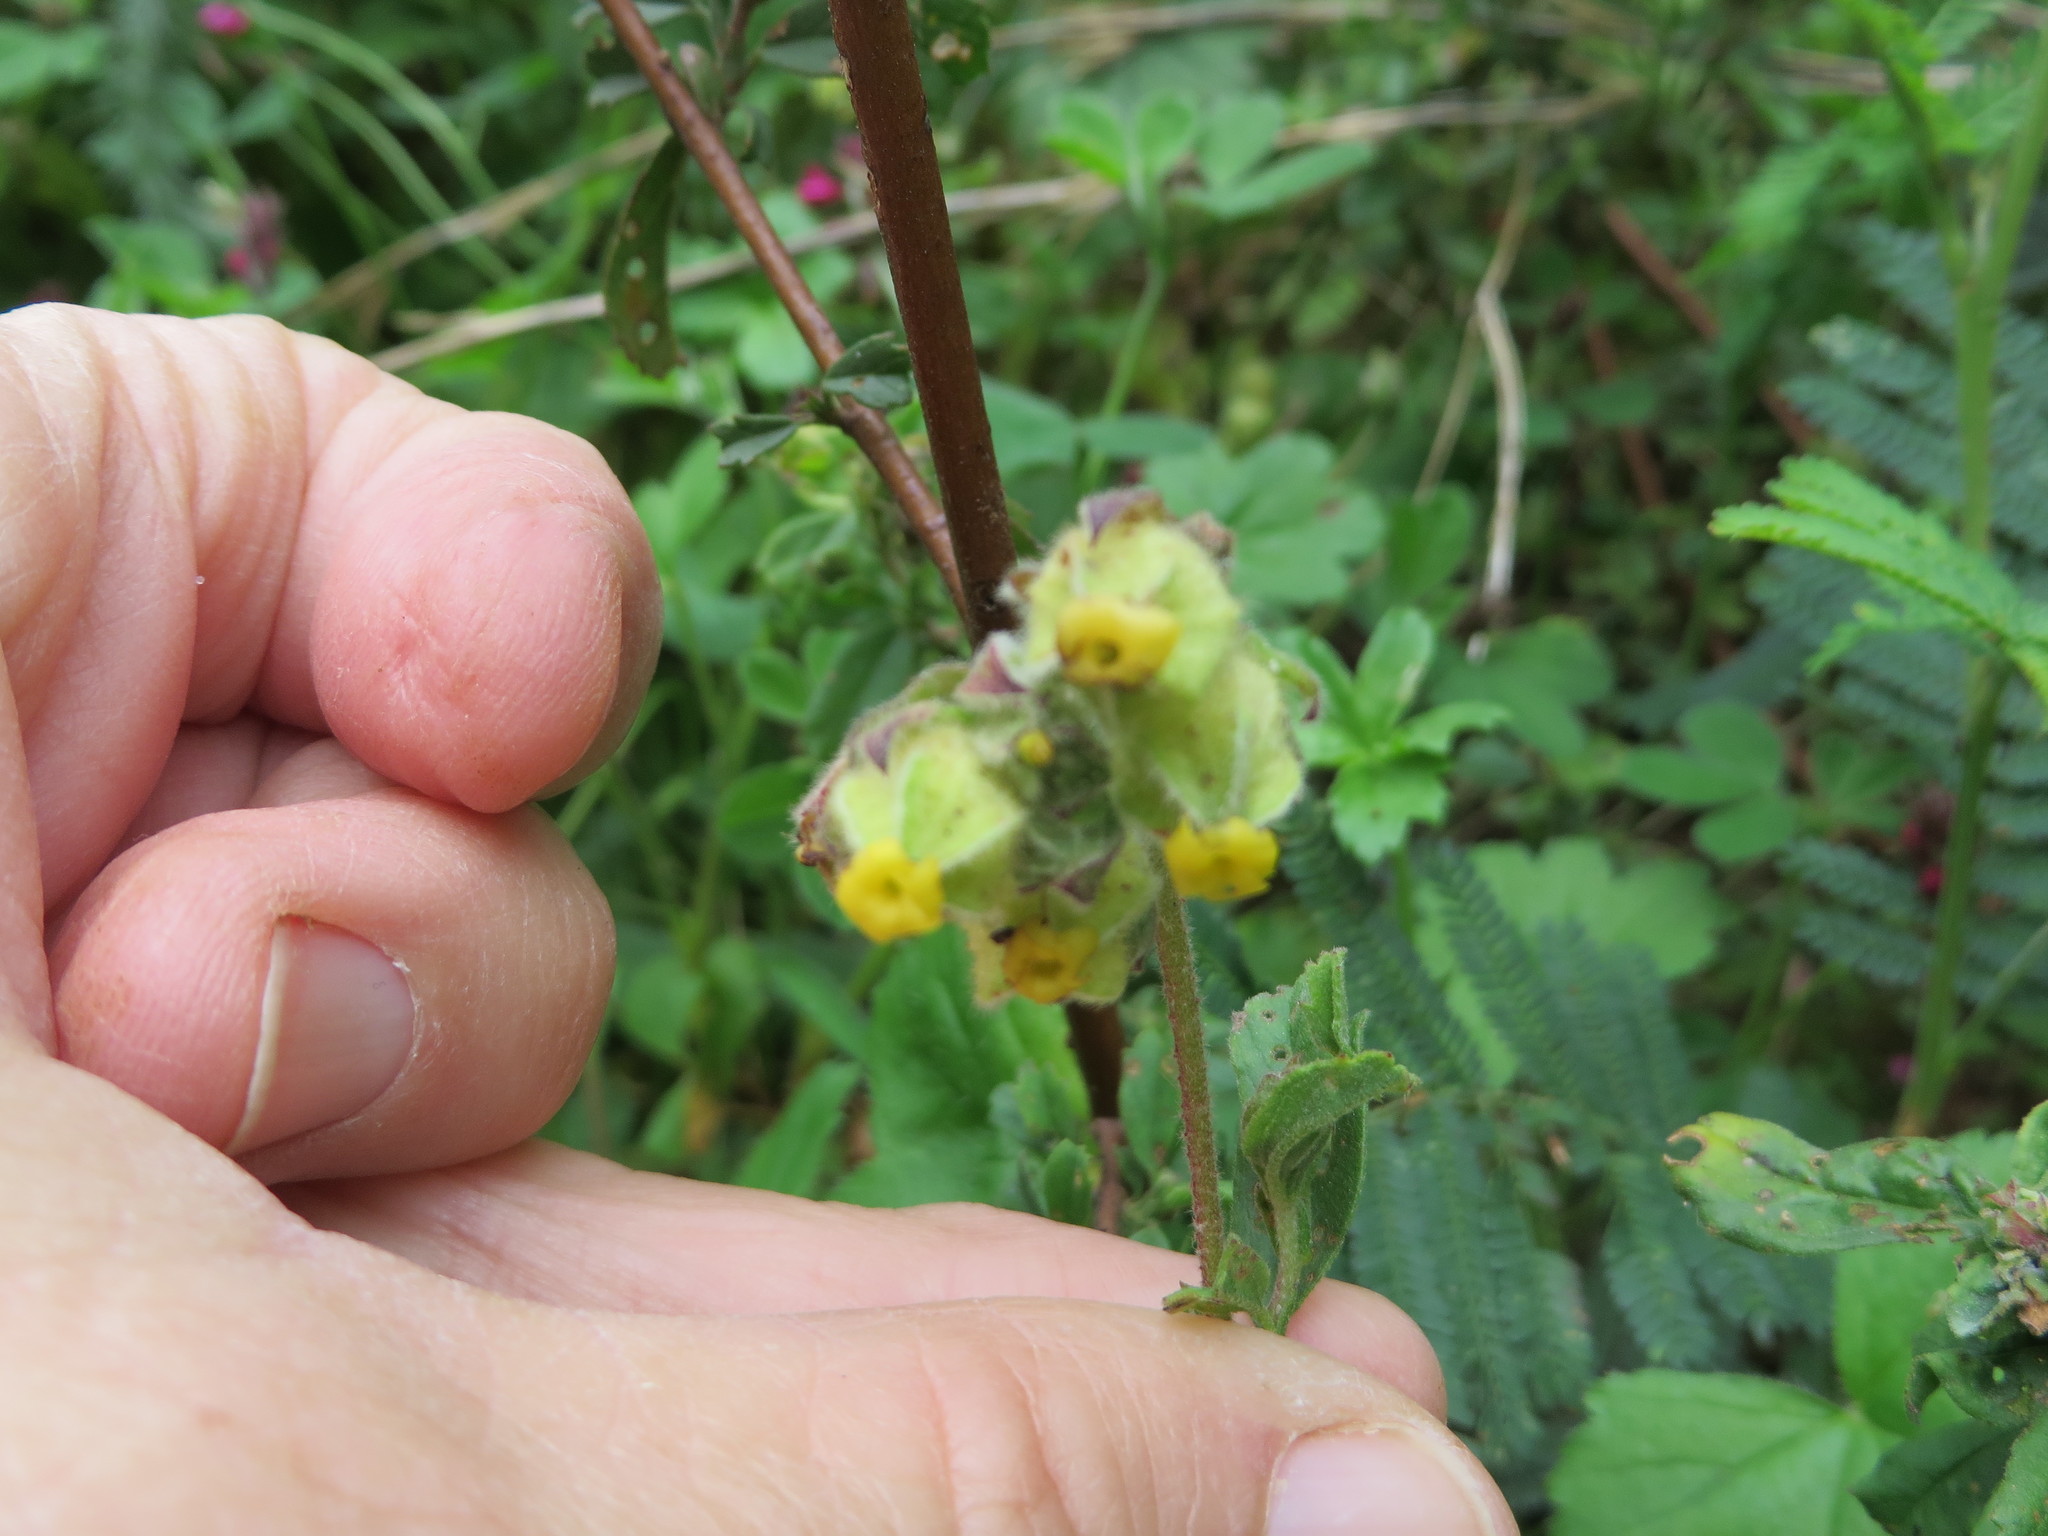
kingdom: Plantae
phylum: Tracheophyta
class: Magnoliopsida
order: Malvales
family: Malvaceae
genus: Hermannia
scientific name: Hermannia hyssopifolia
